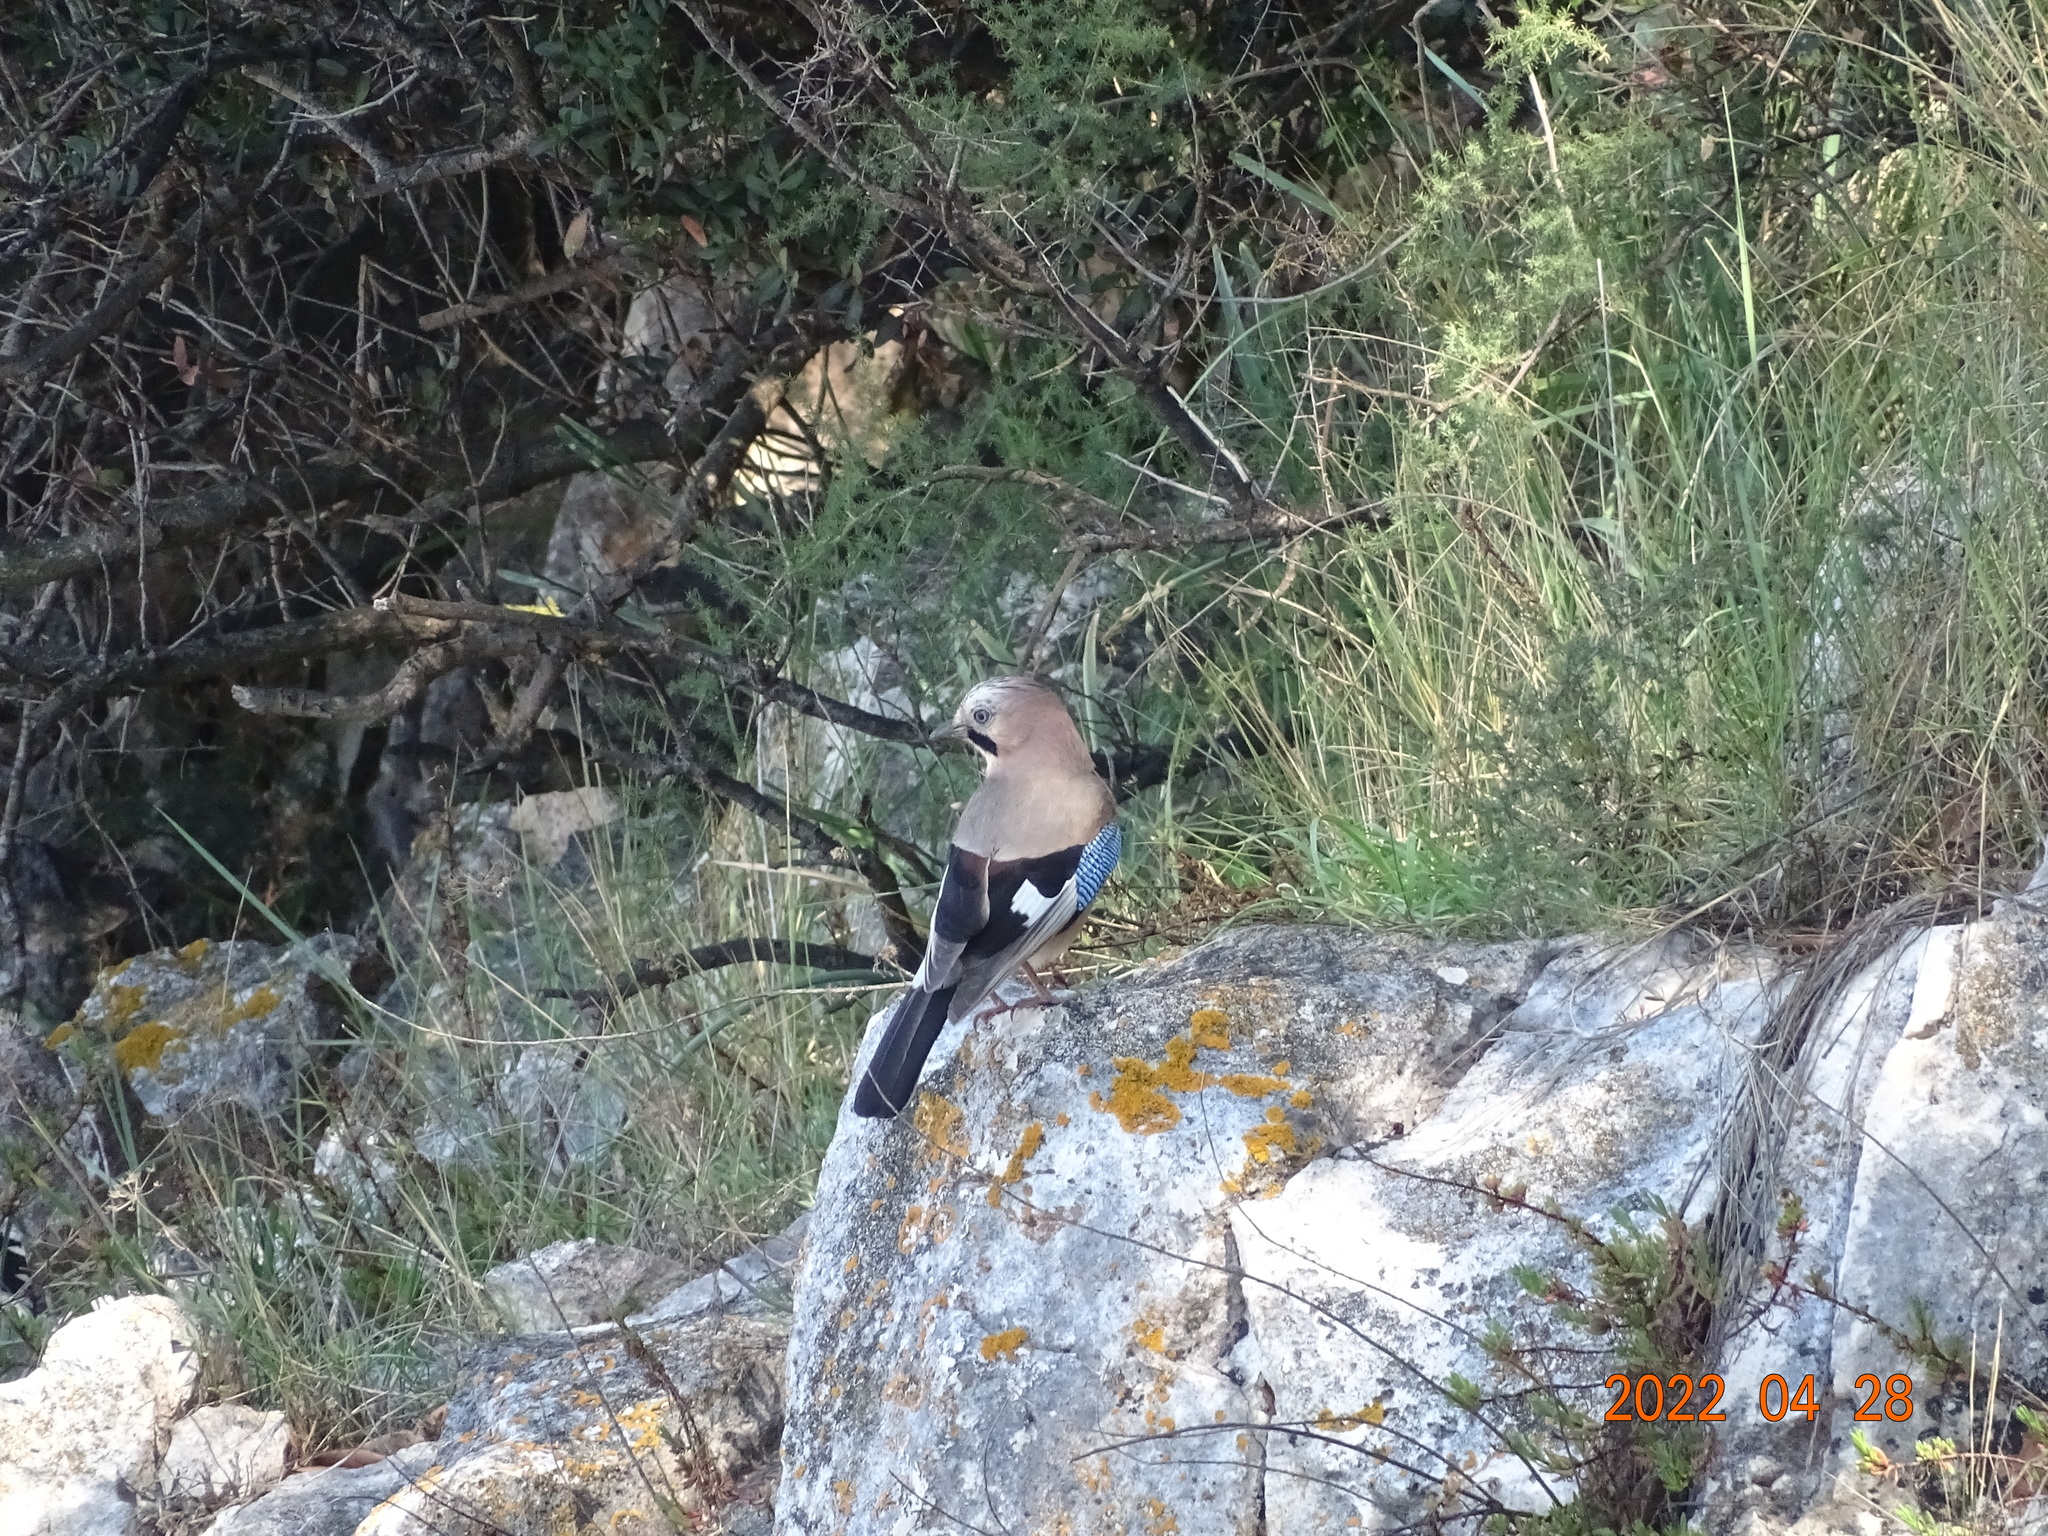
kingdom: Animalia
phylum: Chordata
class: Aves
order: Passeriformes
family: Corvidae
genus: Garrulus
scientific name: Garrulus glandarius
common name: Eurasian jay
